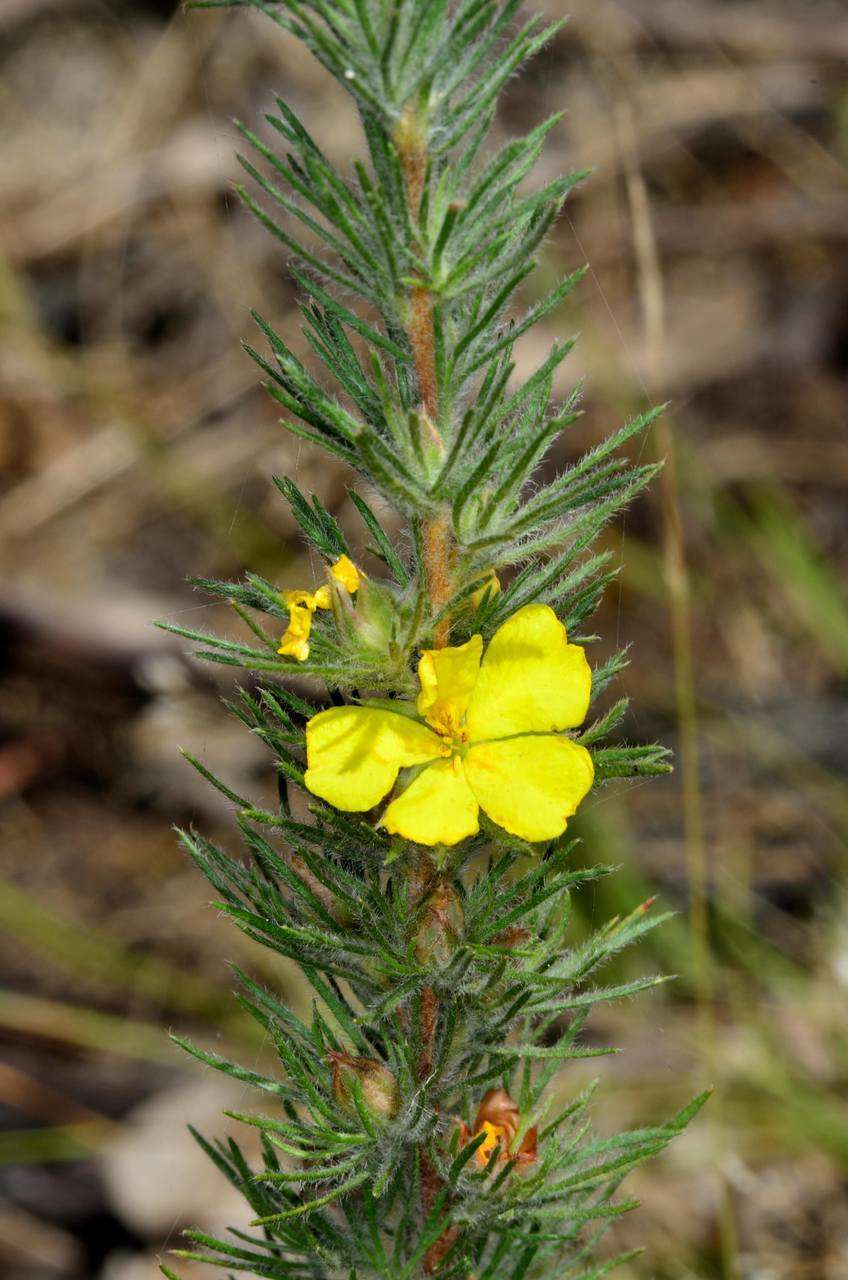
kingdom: Plantae
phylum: Tracheophyta
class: Magnoliopsida
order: Dilleniales
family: Dilleniaceae
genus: Hibbertia
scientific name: Hibbertia prostrata
